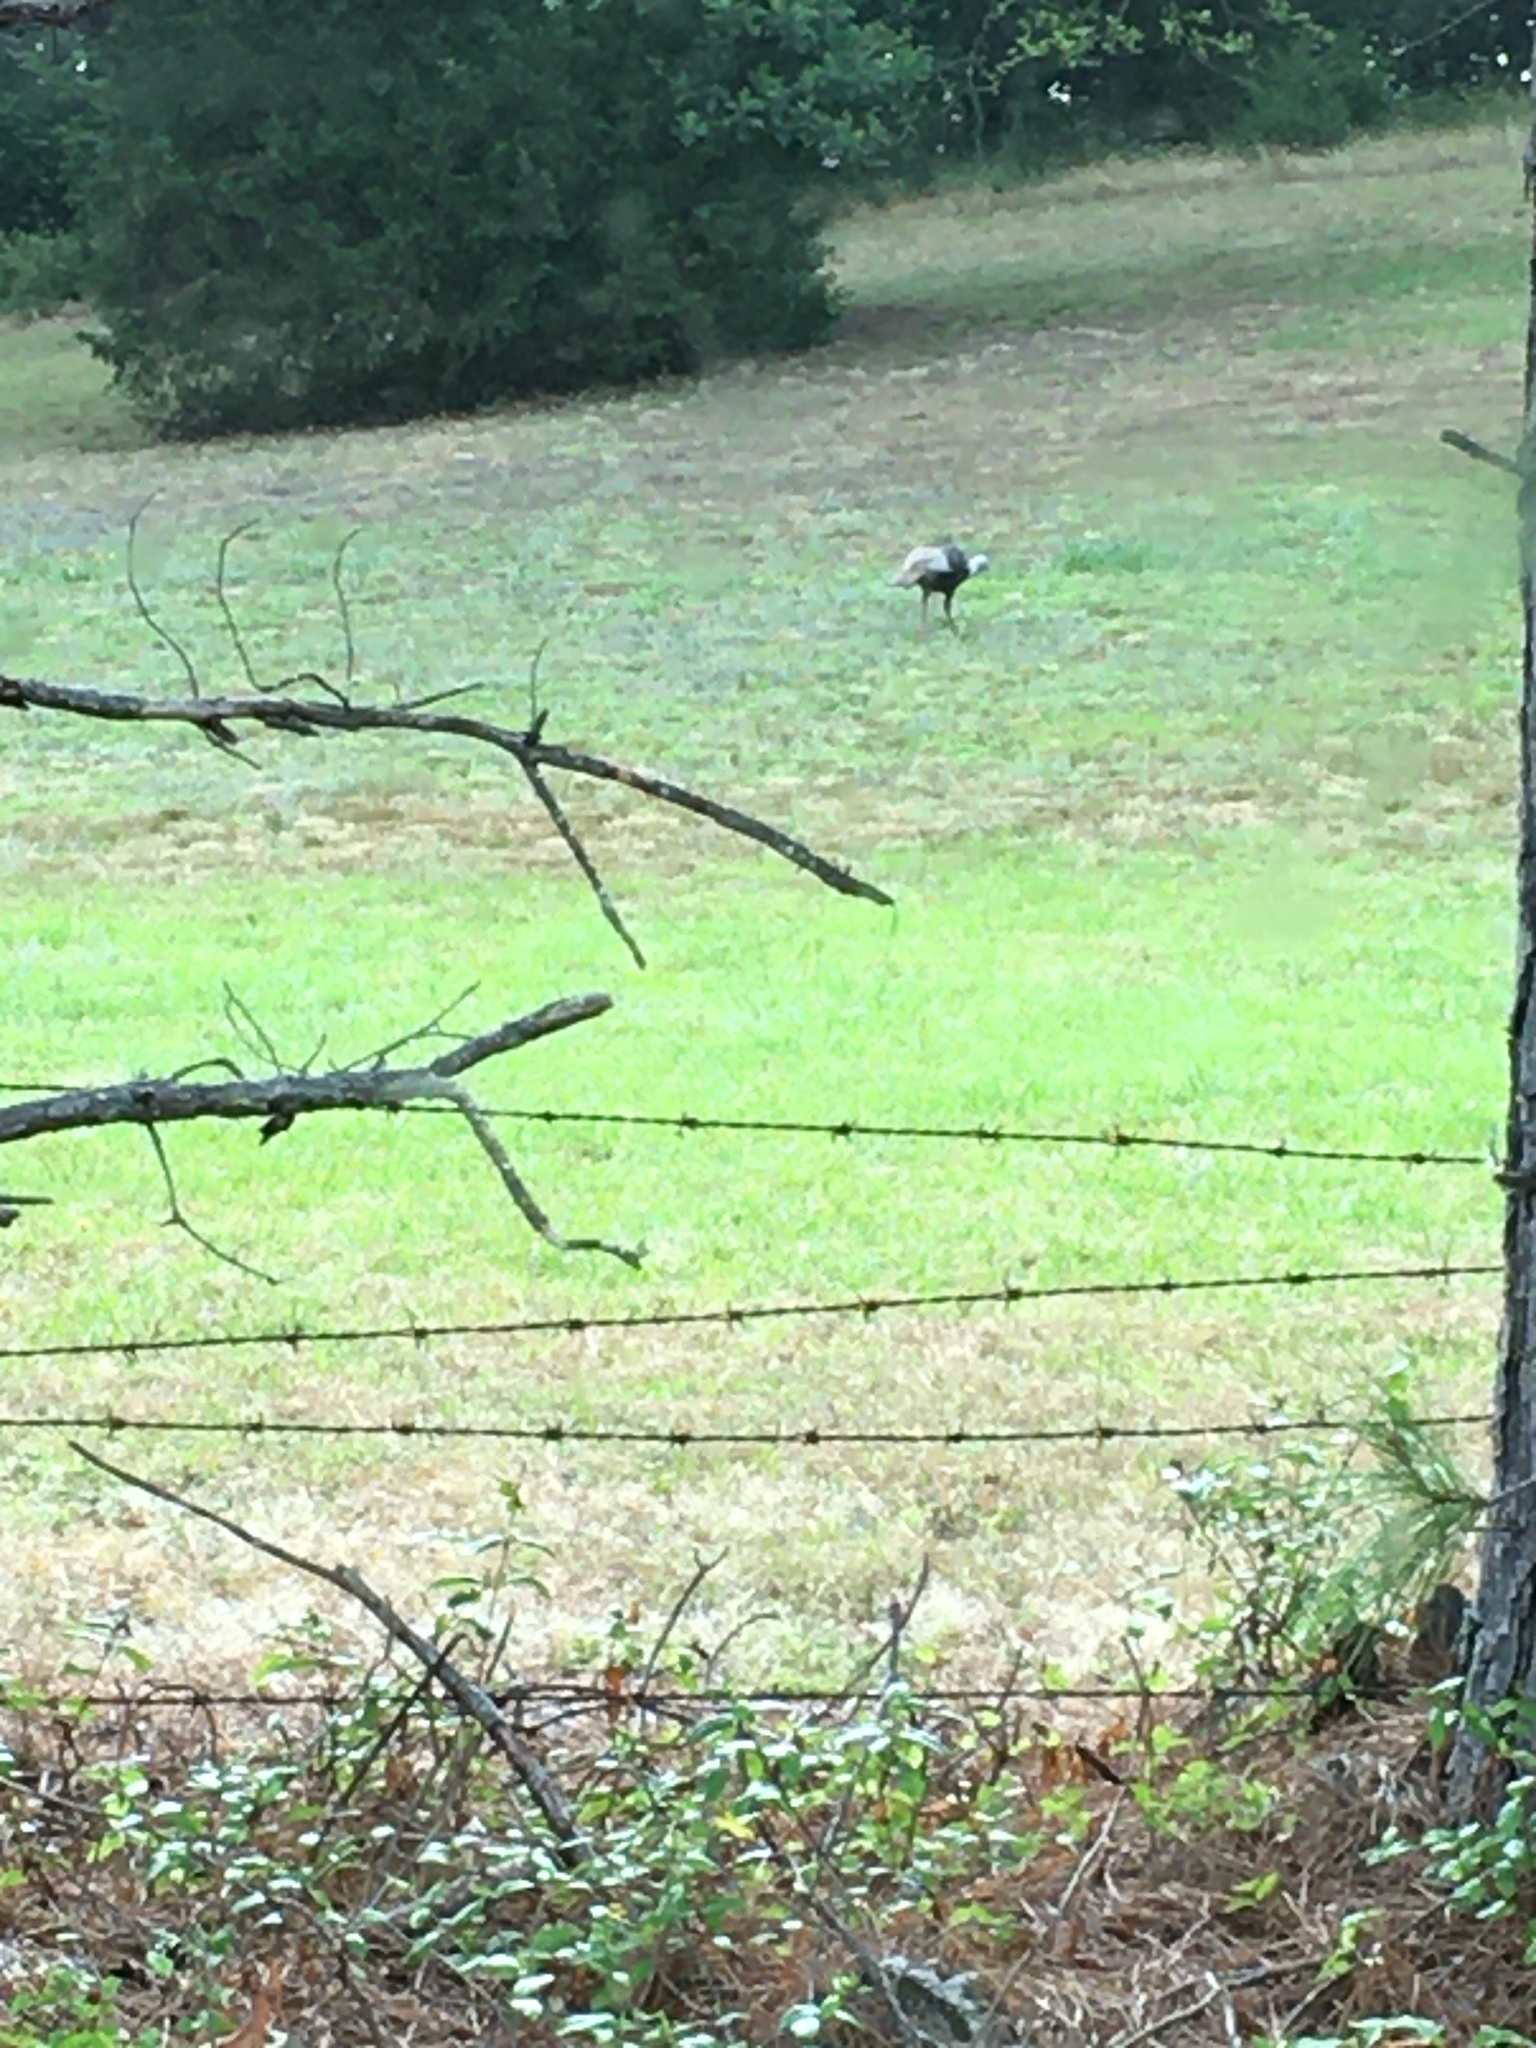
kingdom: Animalia
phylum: Chordata
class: Aves
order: Galliformes
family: Phasianidae
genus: Meleagris
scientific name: Meleagris gallopavo
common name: Wild turkey
